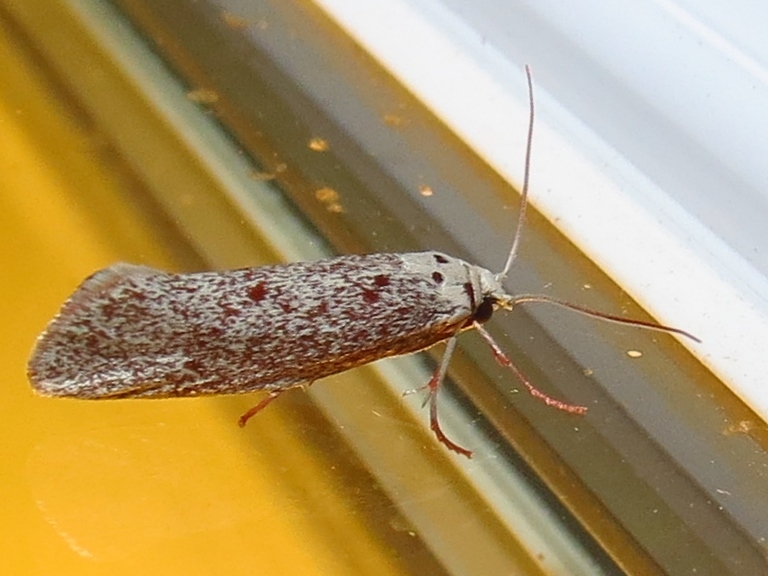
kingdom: Animalia
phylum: Arthropoda
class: Insecta
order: Lepidoptera
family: Lacturidae
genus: Lactura
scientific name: Lactura
